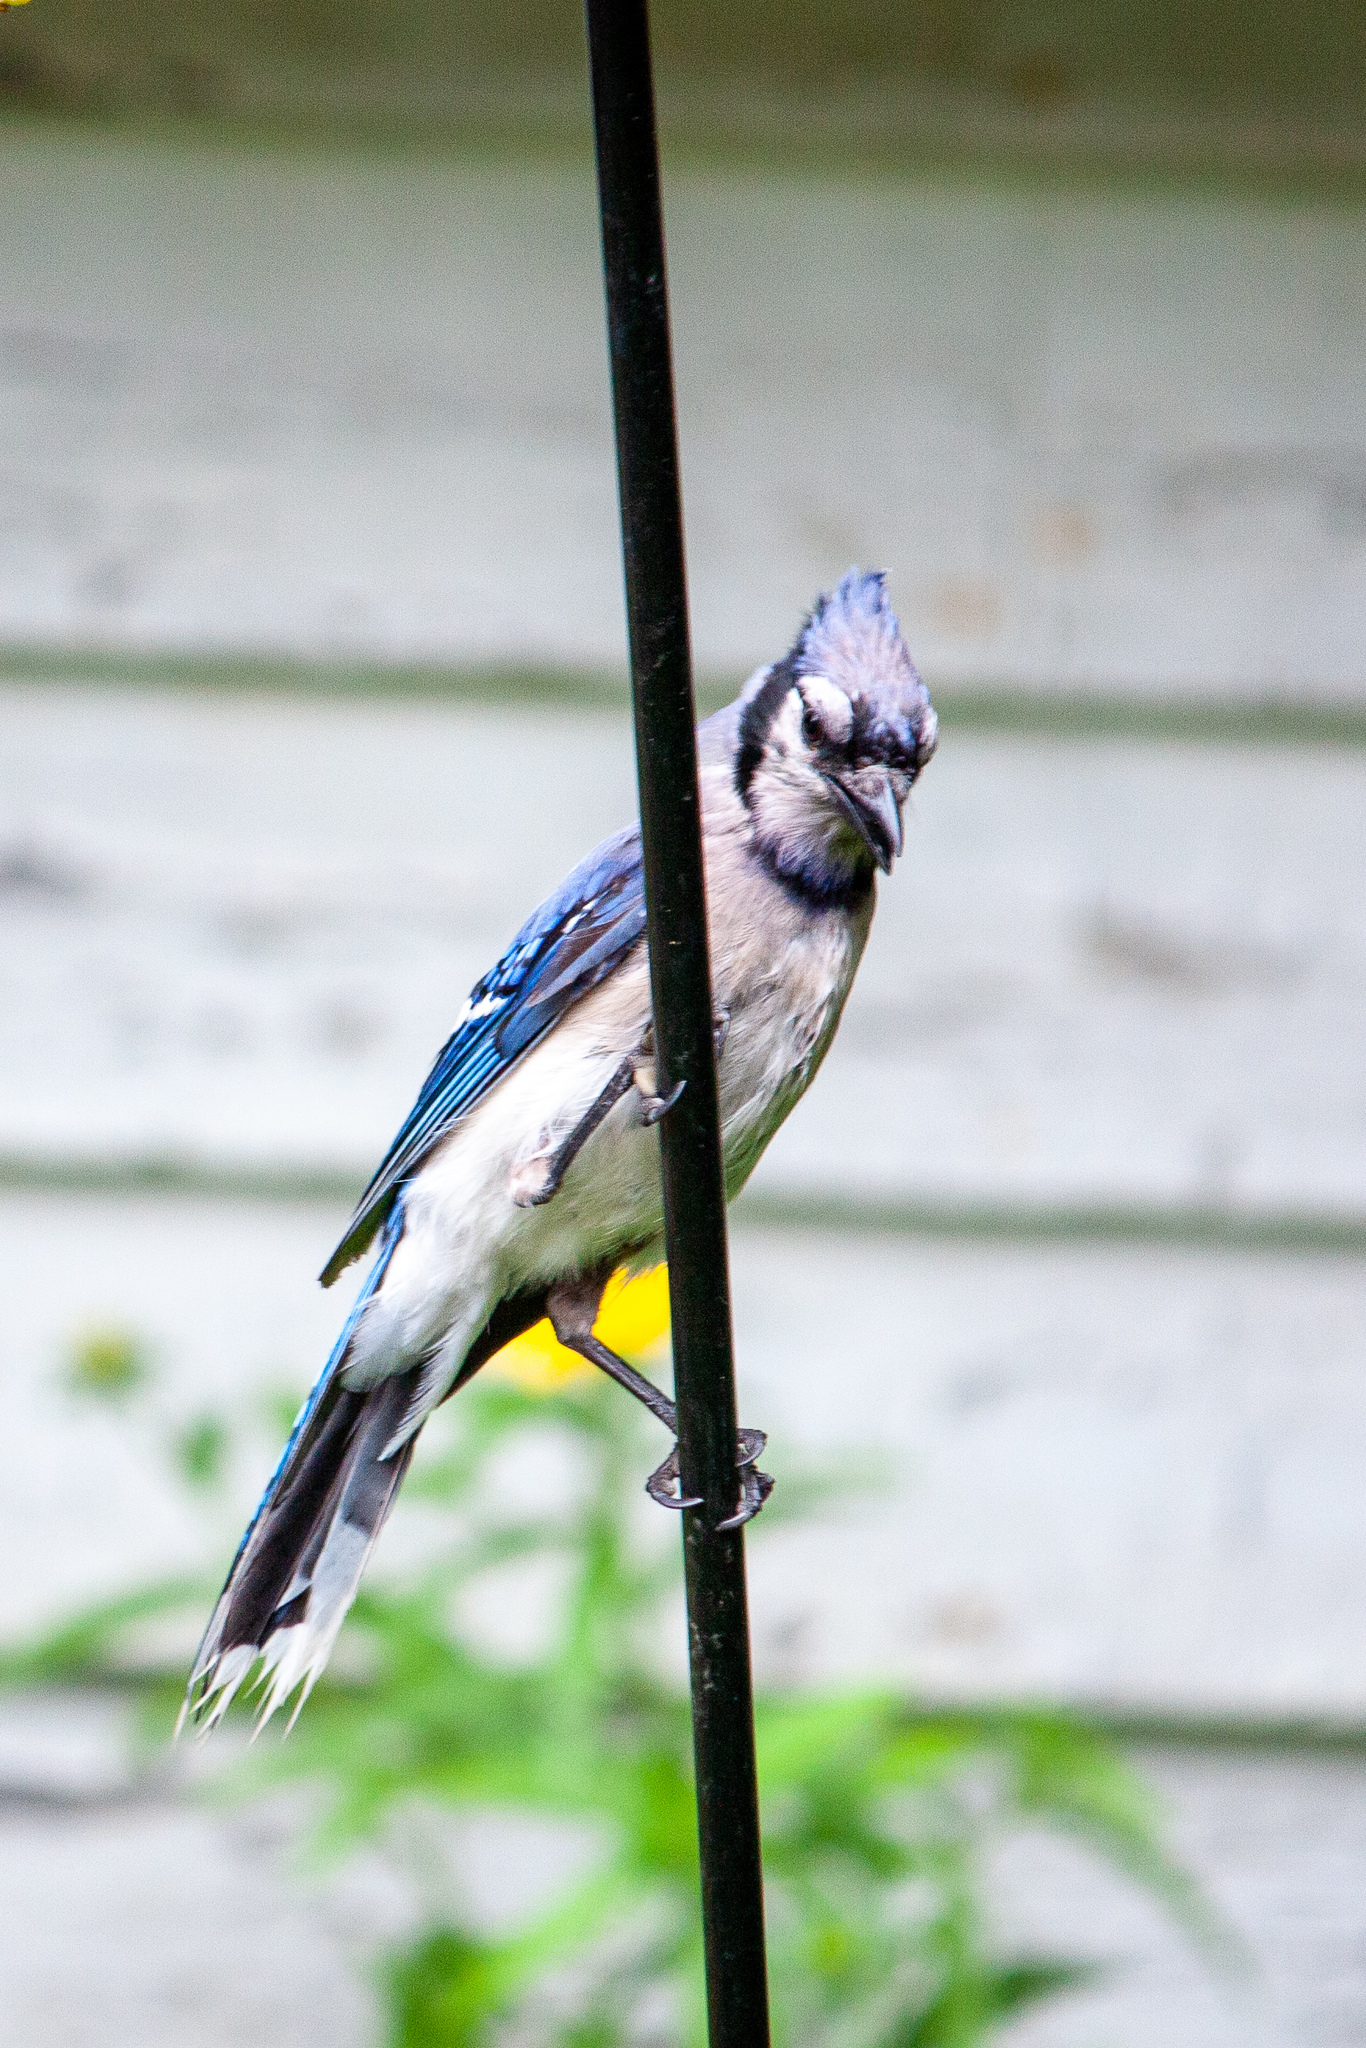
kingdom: Animalia
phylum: Chordata
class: Aves
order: Passeriformes
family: Corvidae
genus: Cyanocitta
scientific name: Cyanocitta cristata
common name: Blue jay
